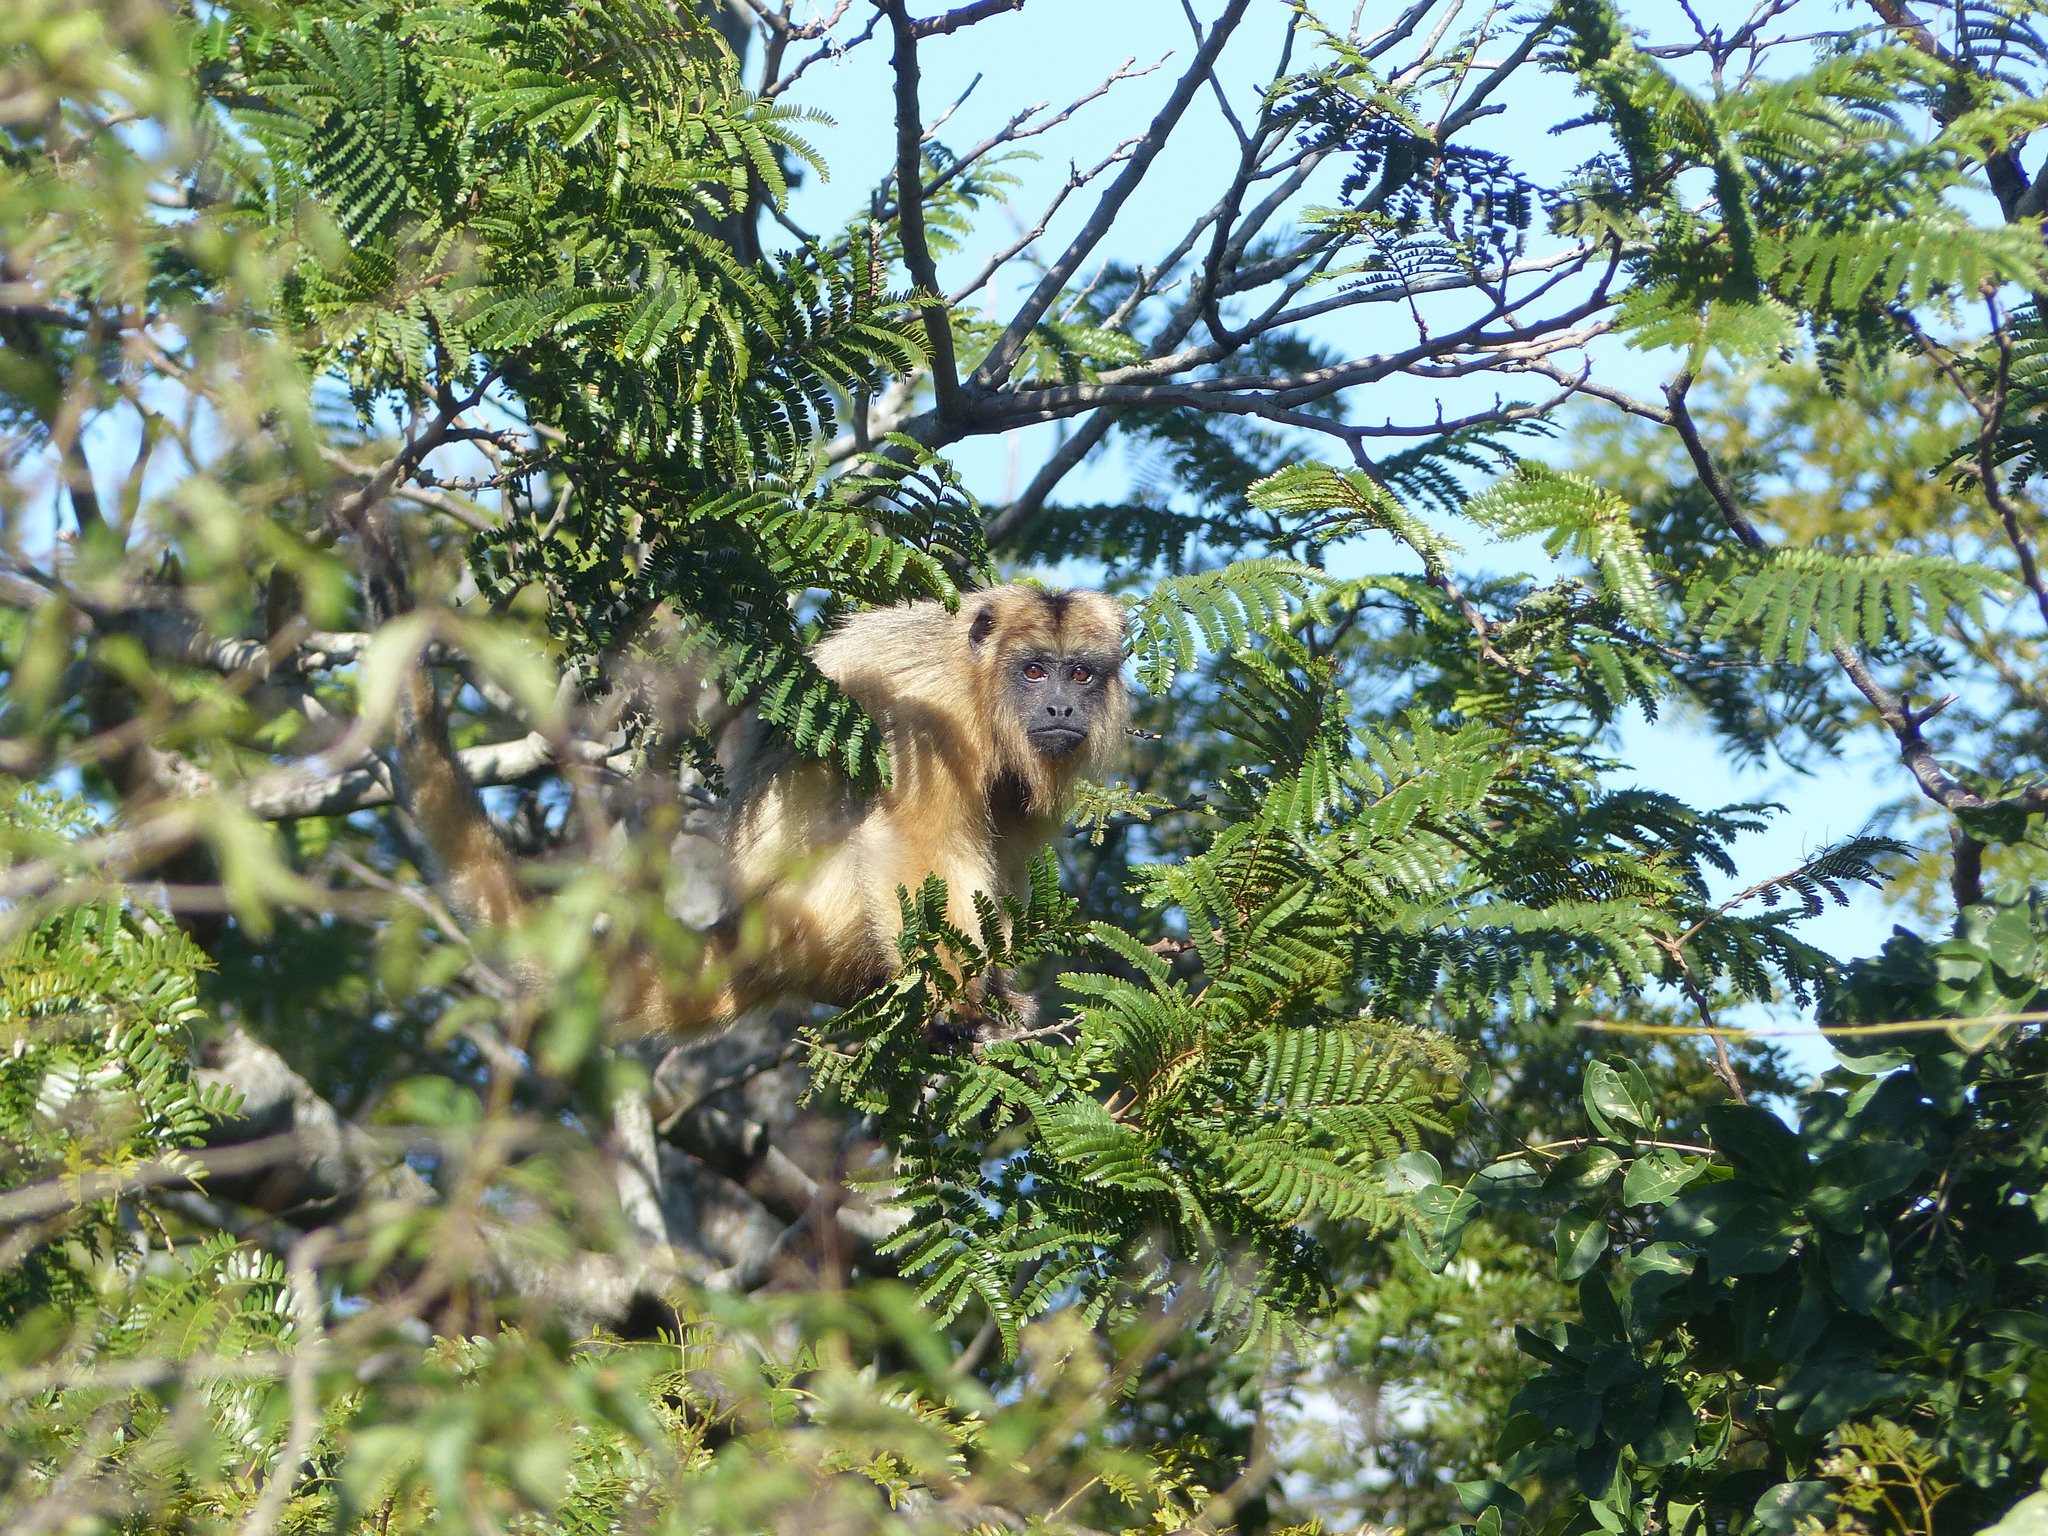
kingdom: Animalia
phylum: Chordata
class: Mammalia
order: Primates
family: Atelidae
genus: Alouatta
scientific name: Alouatta caraya
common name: Black howler
